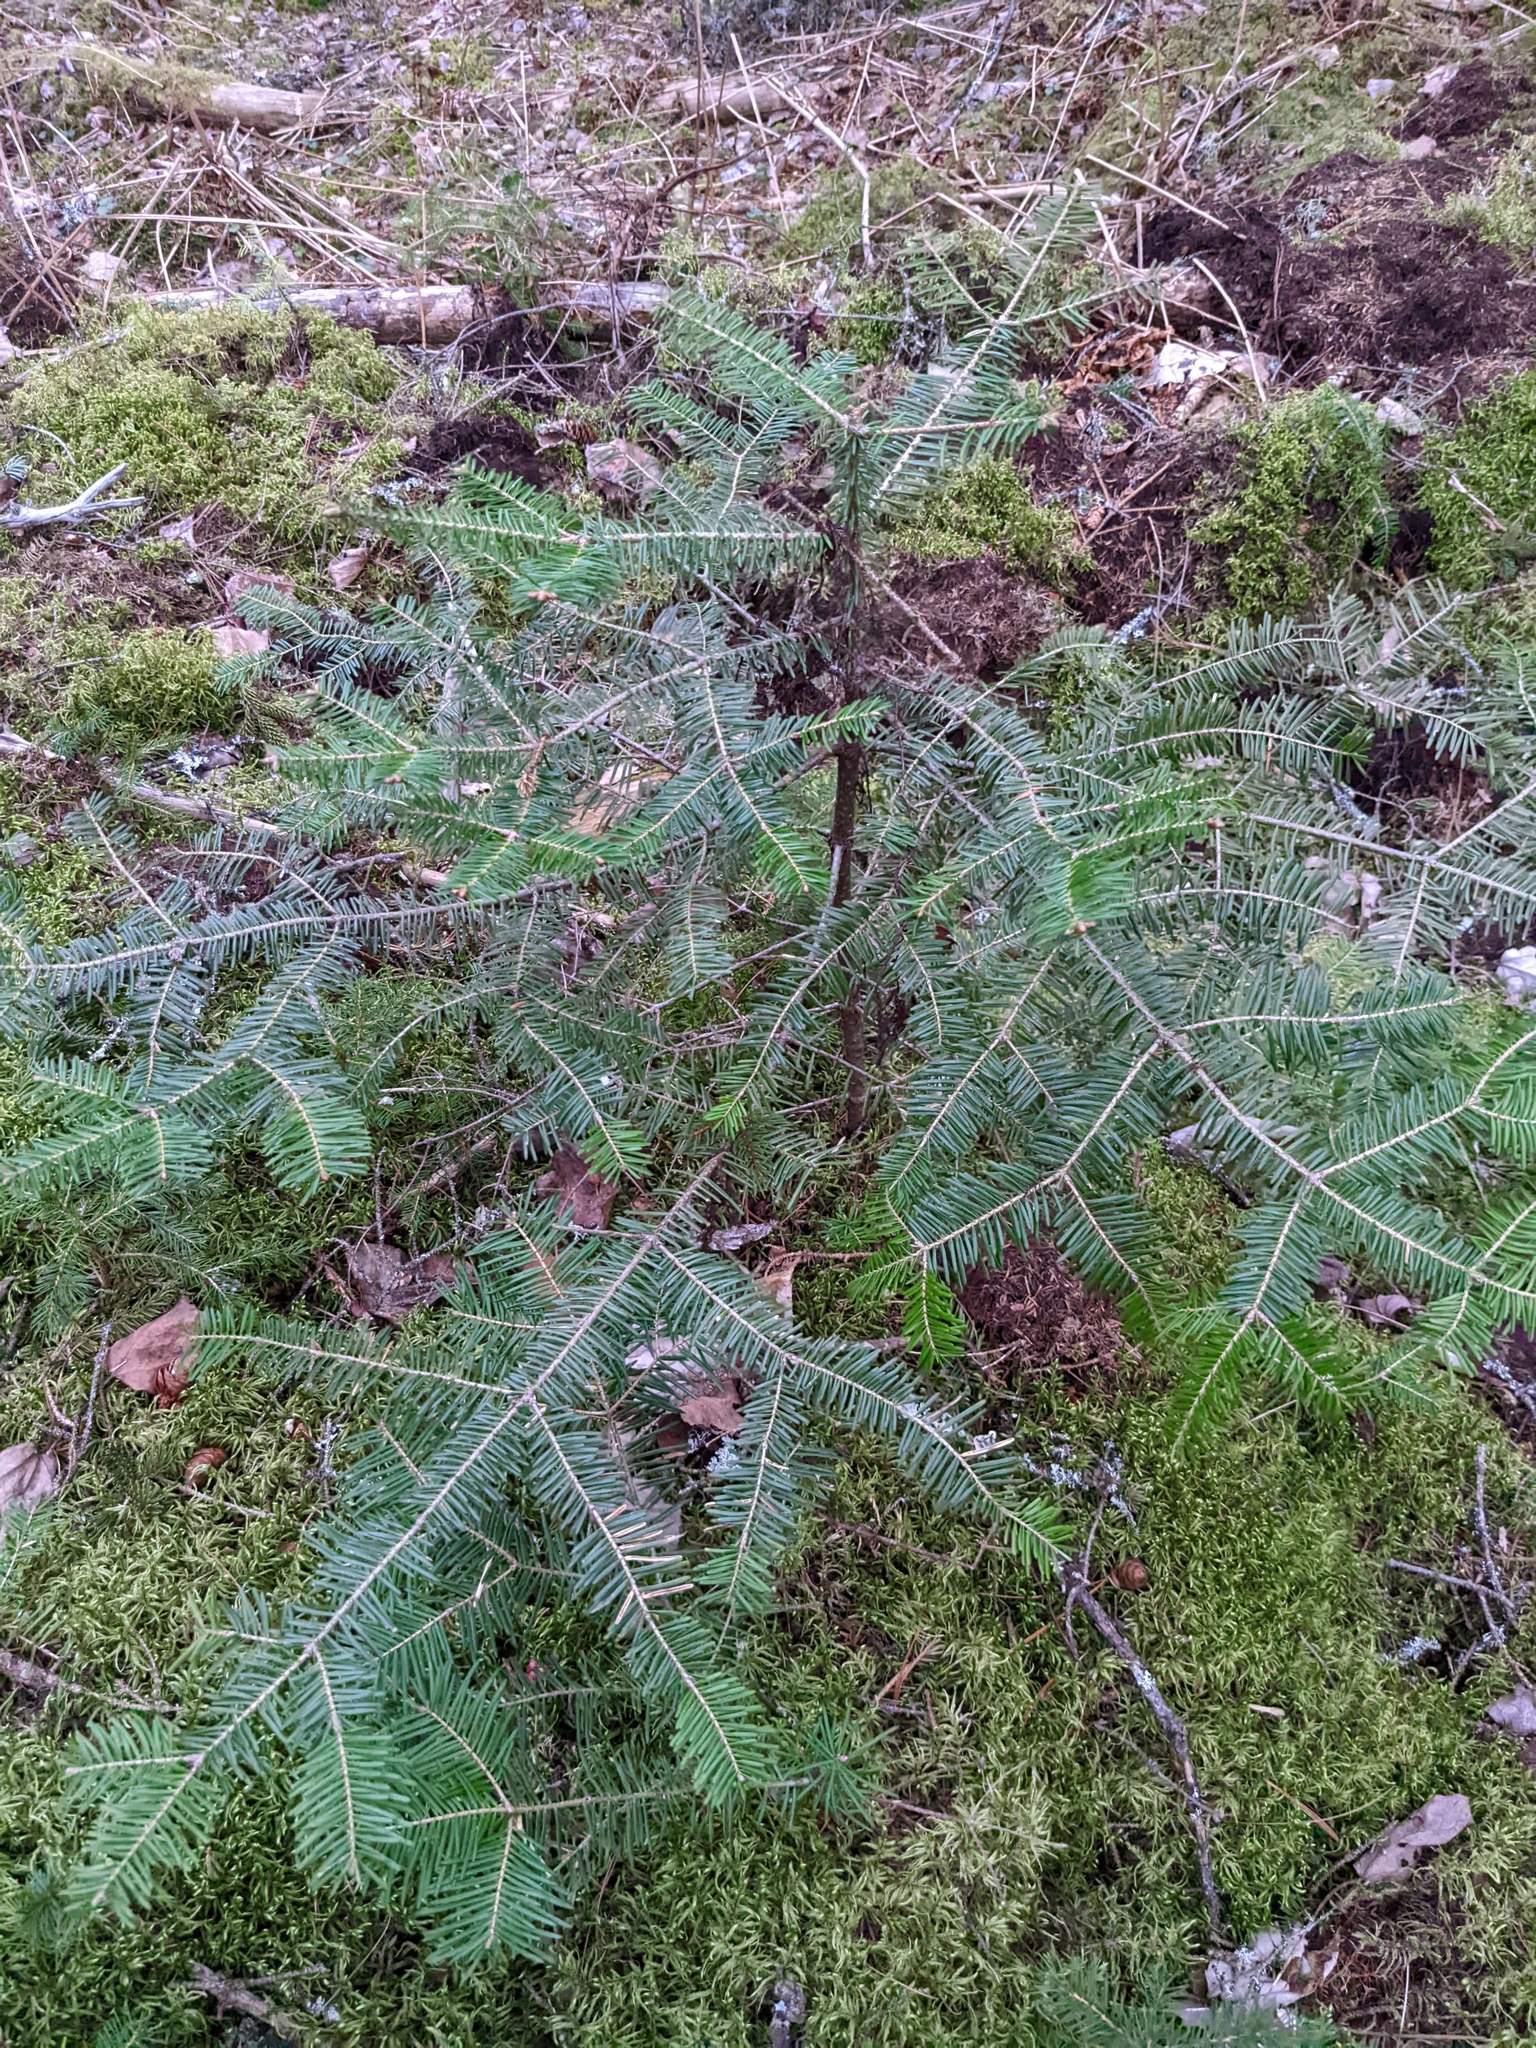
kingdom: Plantae
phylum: Tracheophyta
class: Pinopsida
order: Pinales
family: Pinaceae
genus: Abies
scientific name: Abies balsamea
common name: Balsam fir
